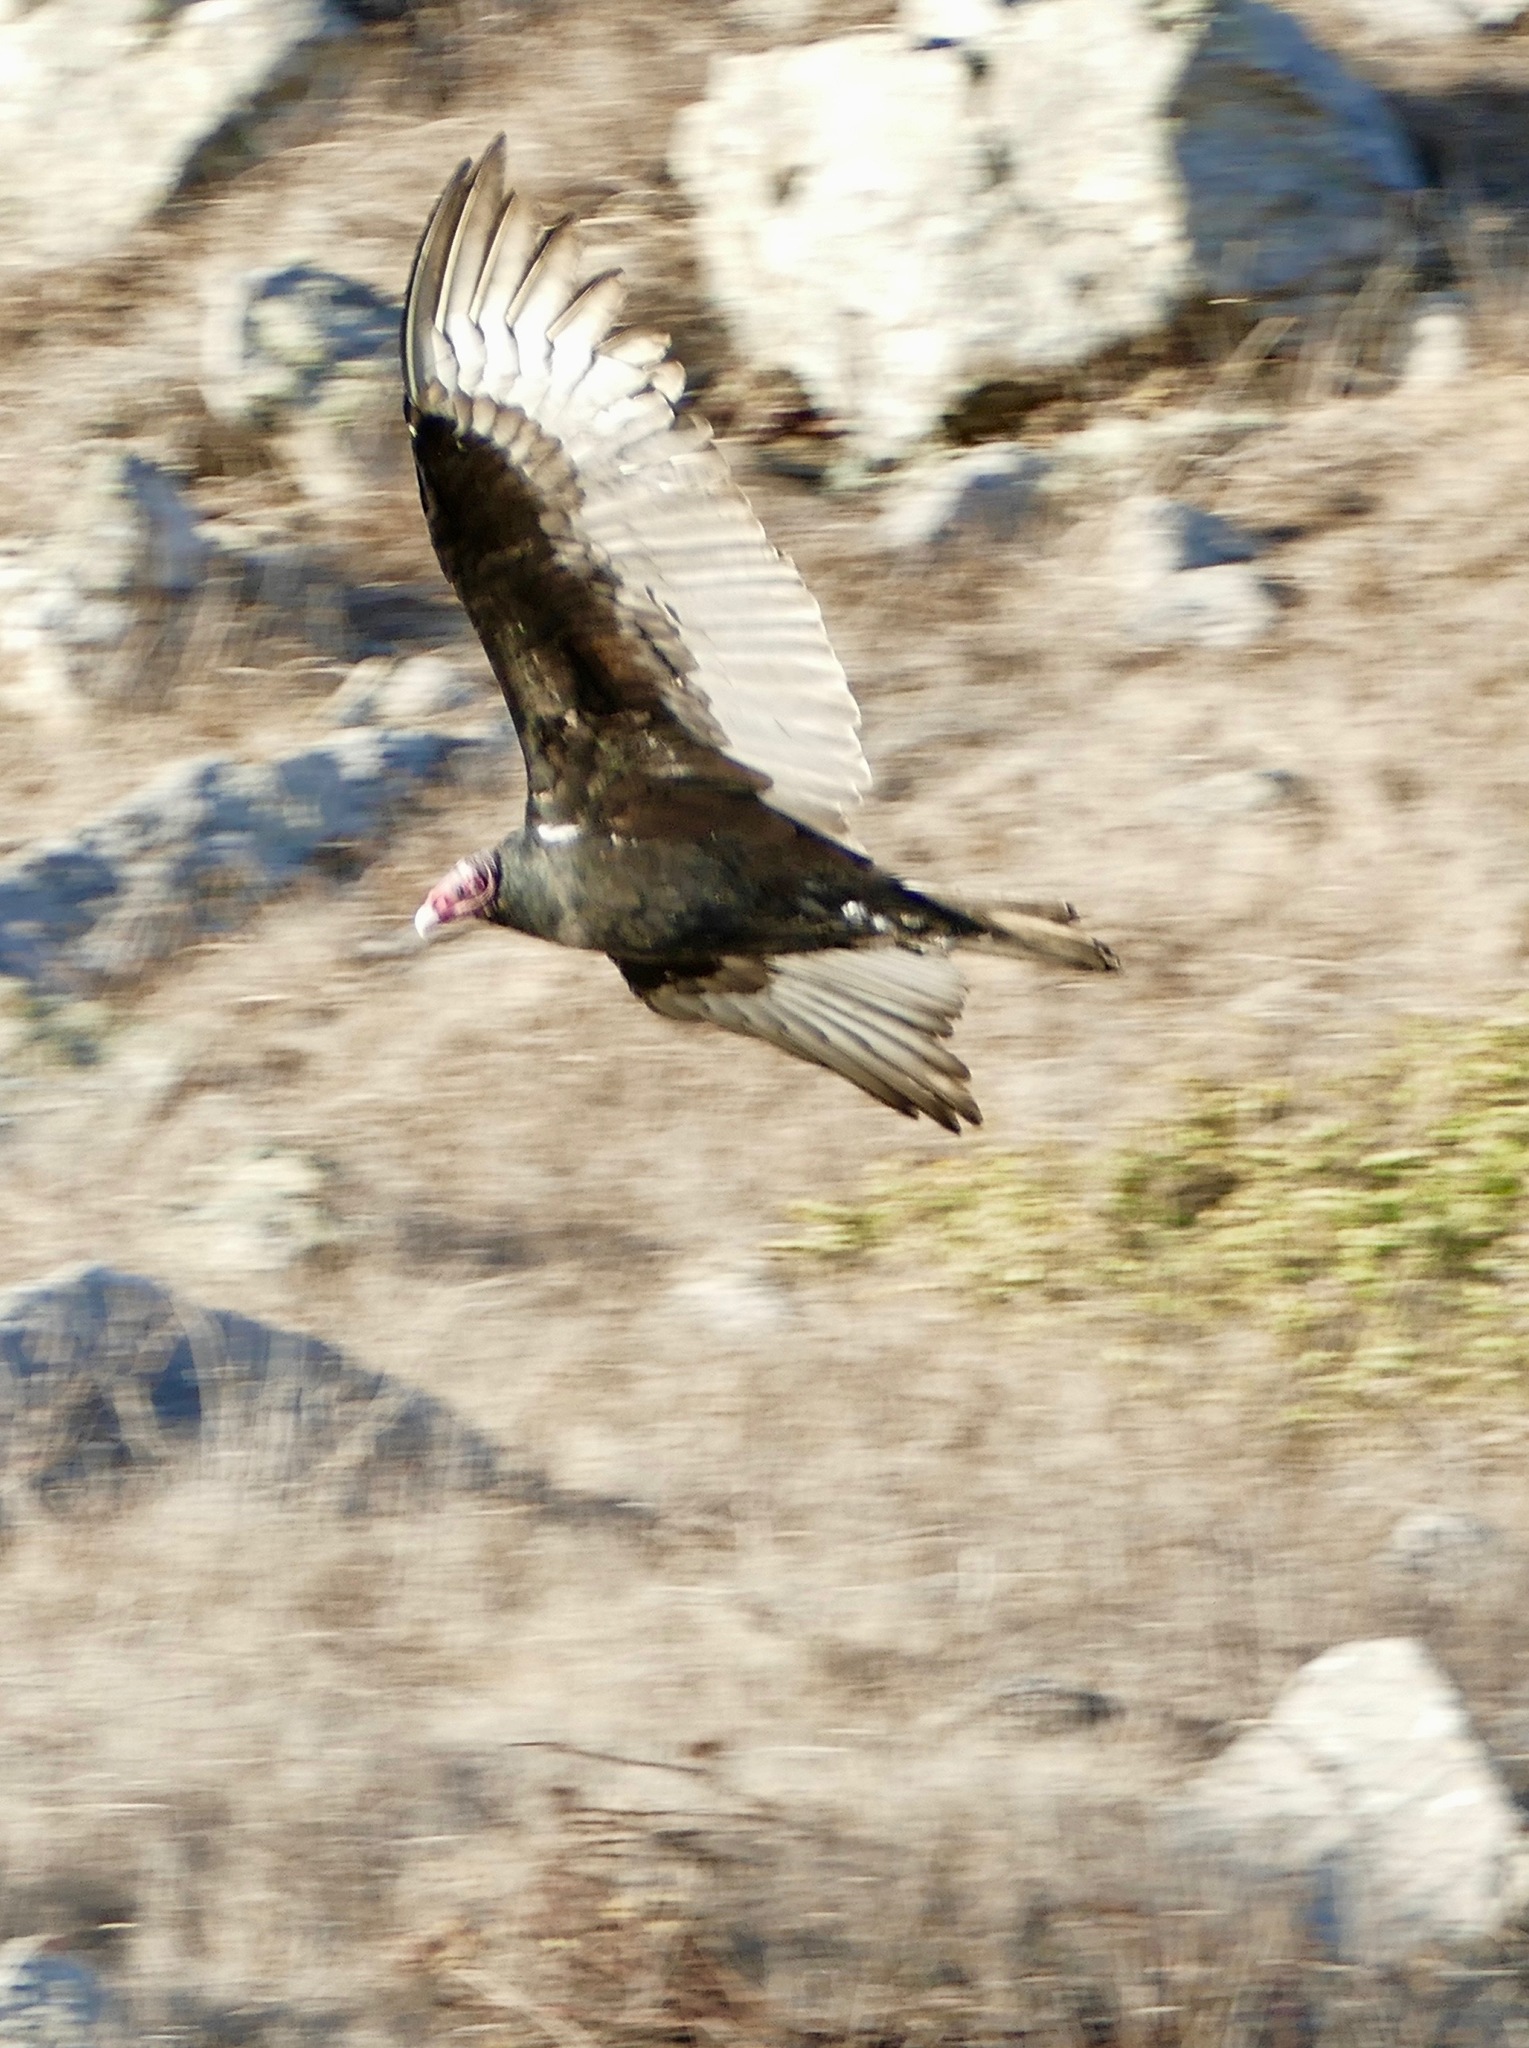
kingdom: Animalia
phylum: Chordata
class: Aves
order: Accipitriformes
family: Cathartidae
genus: Cathartes
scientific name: Cathartes aura
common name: Turkey vulture
